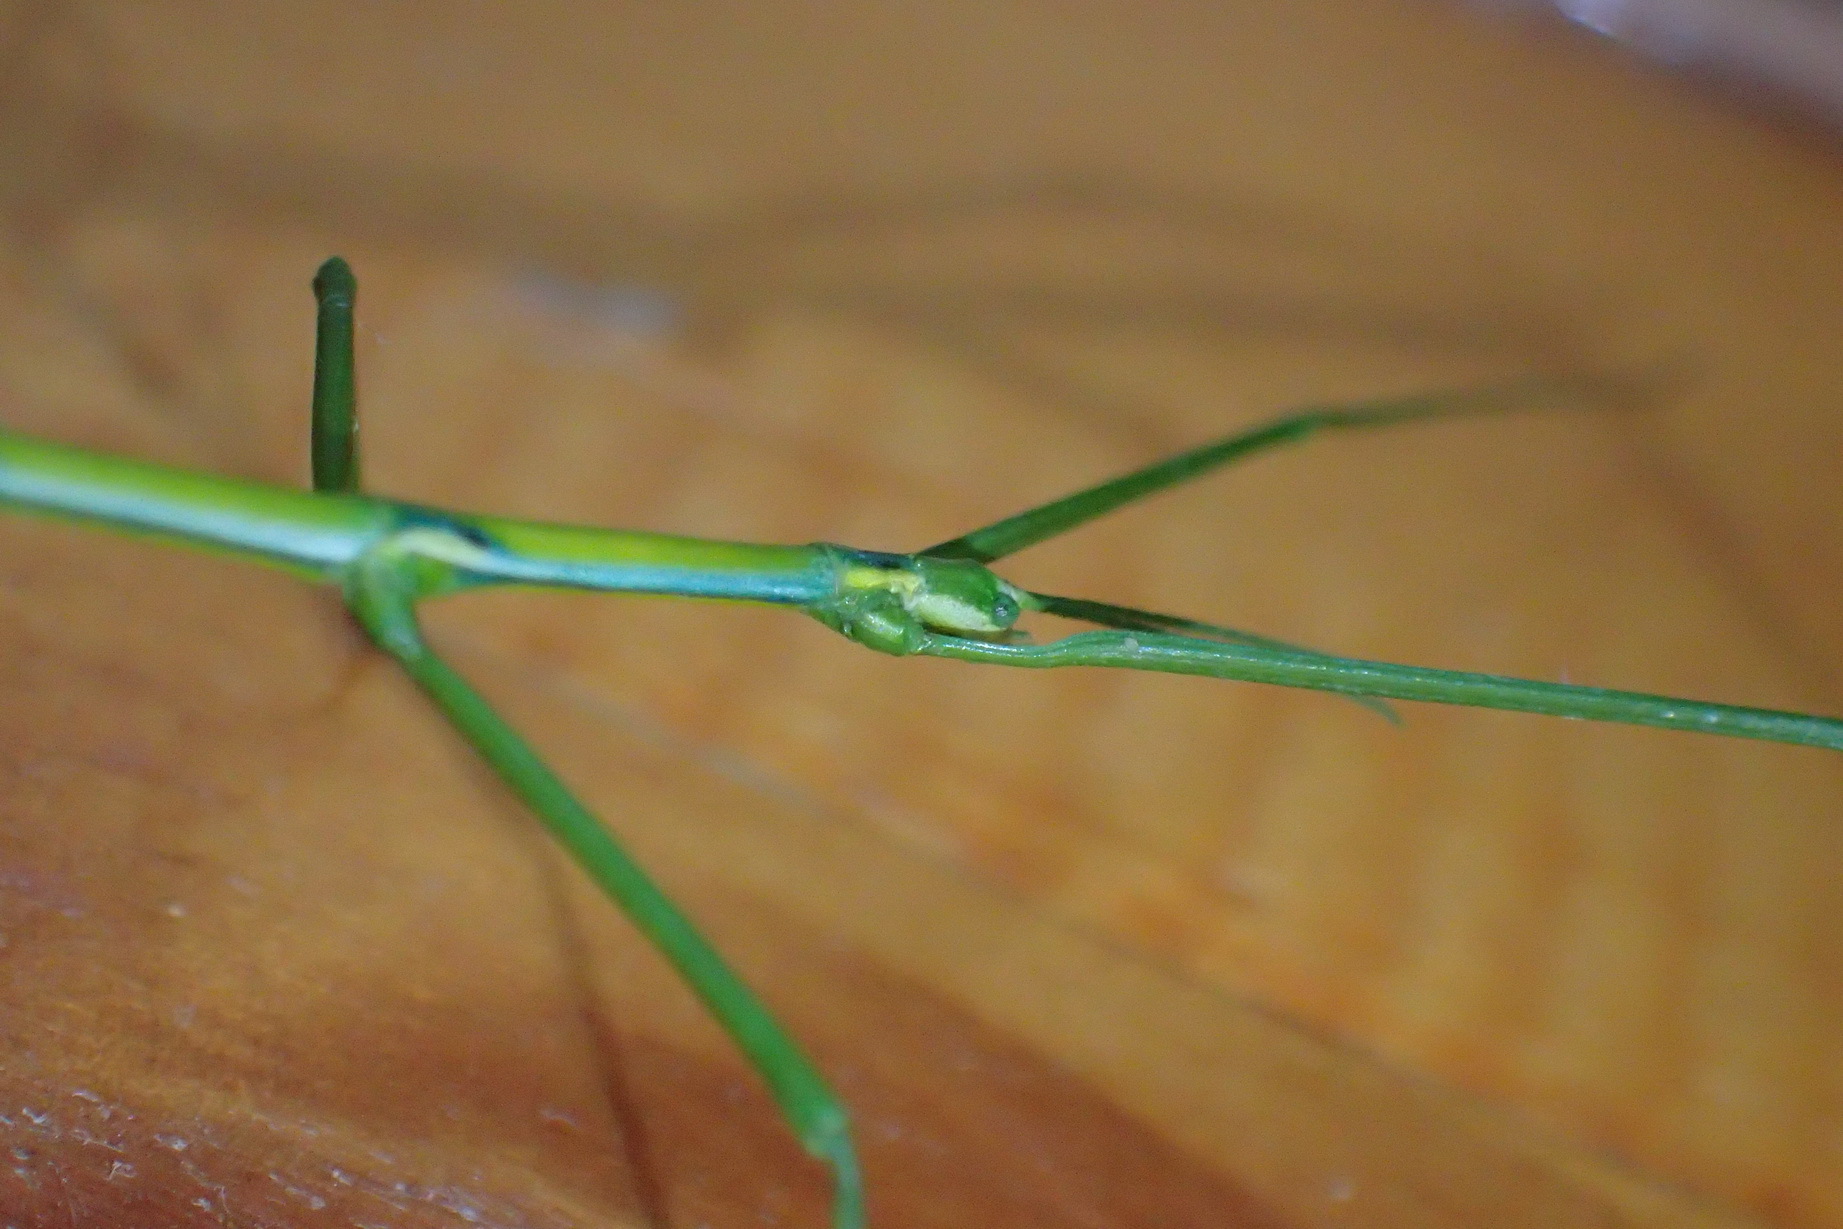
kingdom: Animalia
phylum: Arthropoda
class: Insecta
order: Phasmida
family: Bacillidae
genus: Phalces
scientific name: Phalces brevis
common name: Cape stick insect
